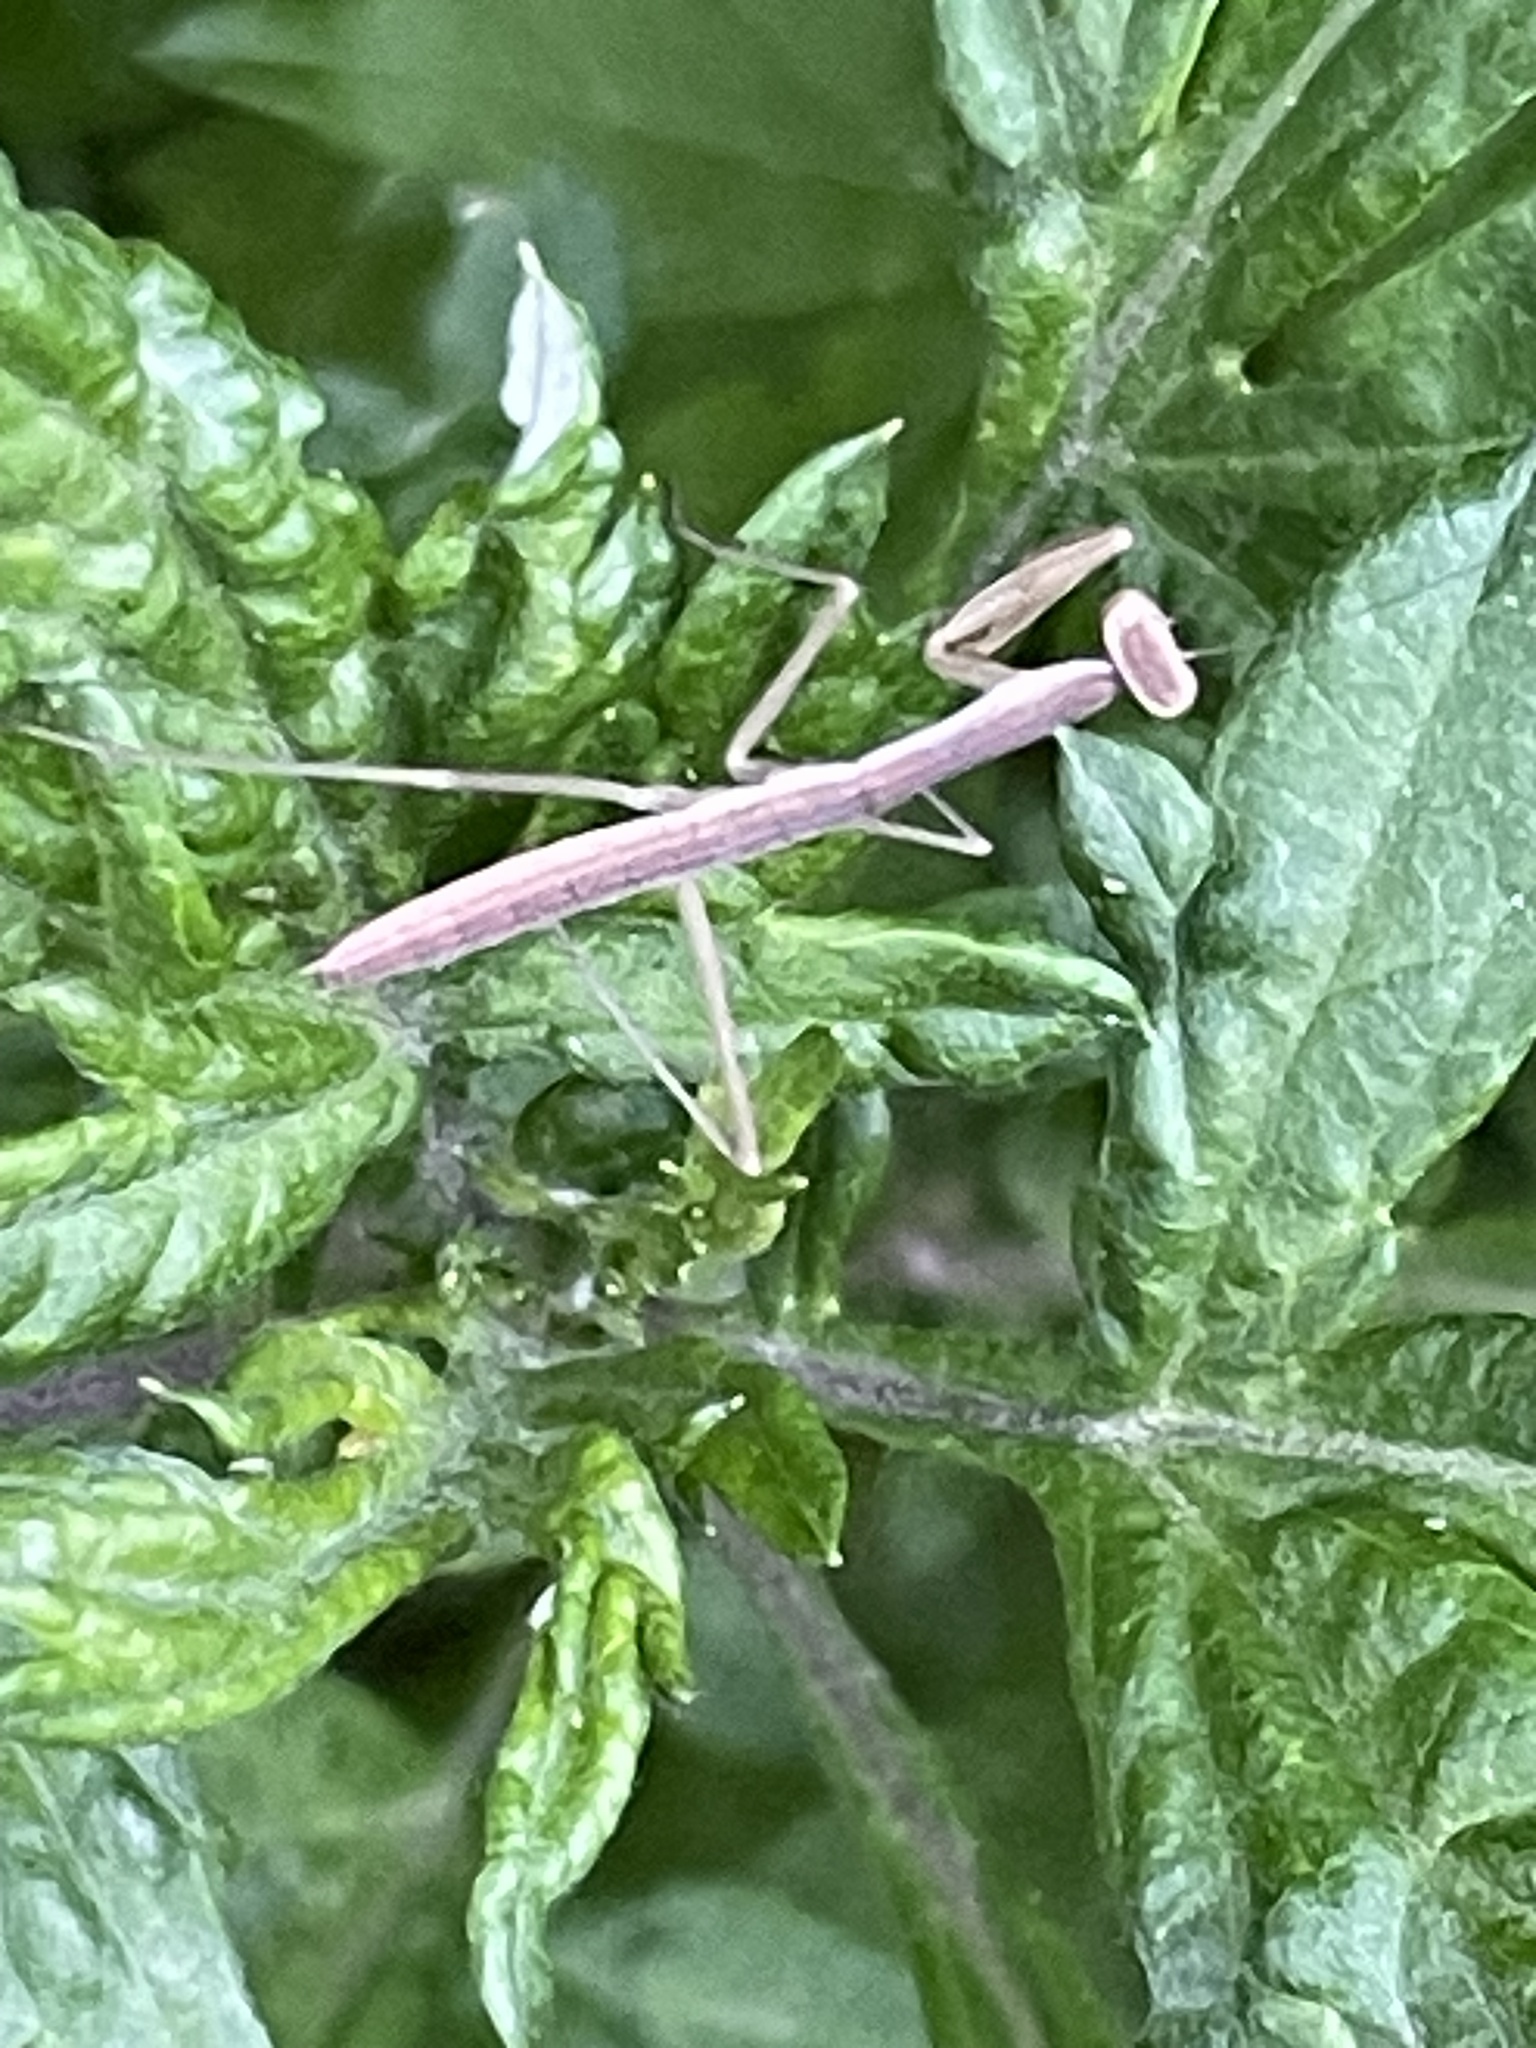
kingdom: Animalia
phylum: Arthropoda
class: Insecta
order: Mantodea
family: Mantidae
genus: Tenodera
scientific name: Tenodera sinensis
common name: Chinese mantis
